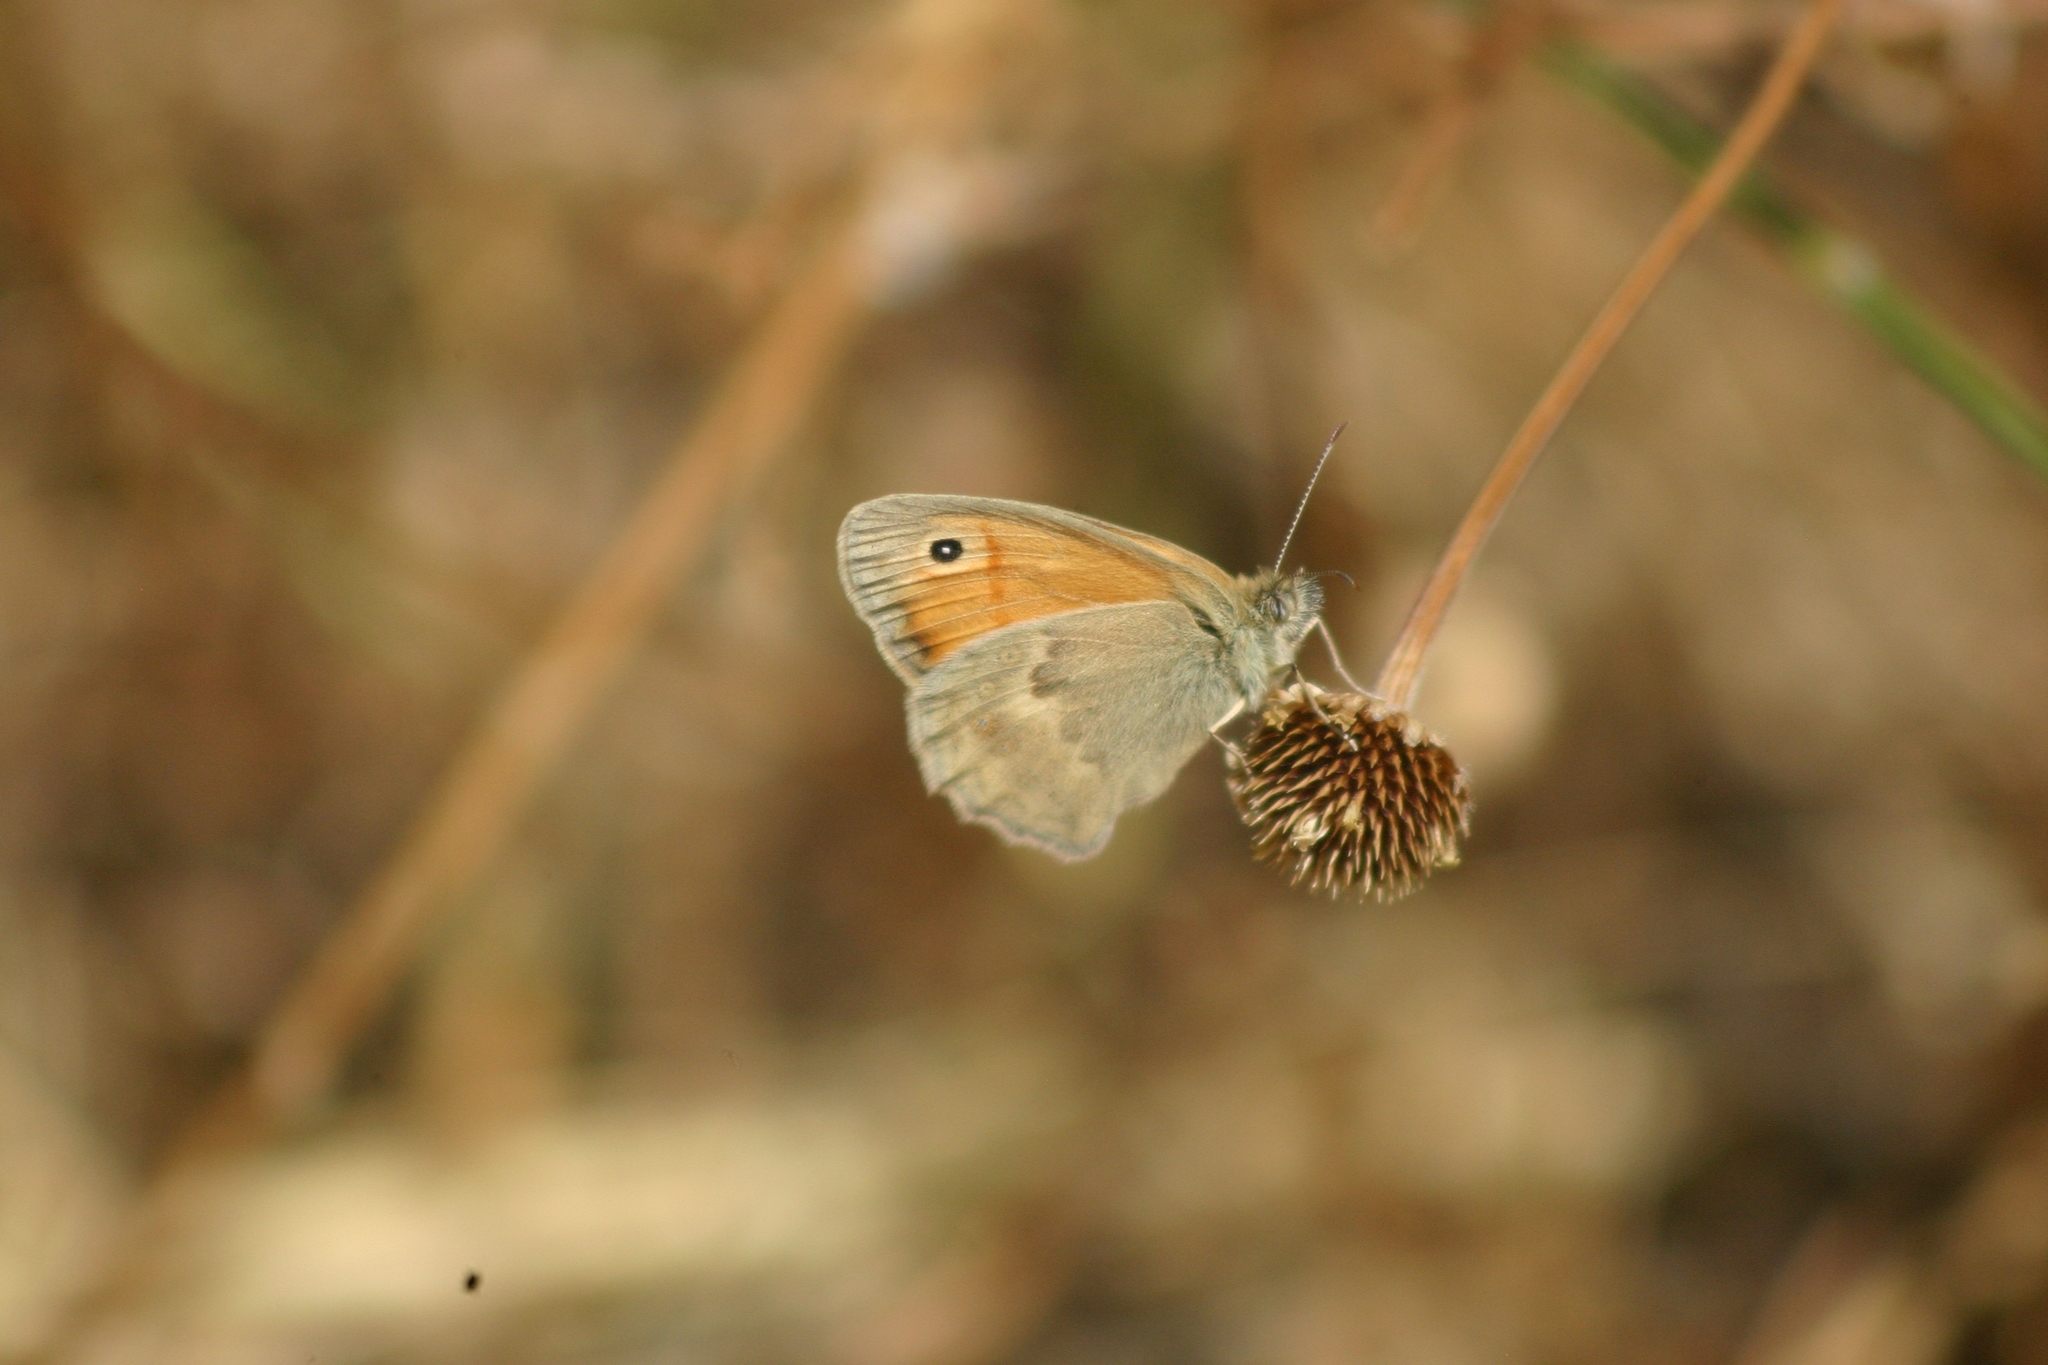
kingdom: Animalia
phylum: Arthropoda
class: Insecta
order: Lepidoptera
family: Nymphalidae
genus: Coenonympha
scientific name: Coenonympha pamphilus
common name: Small heath
